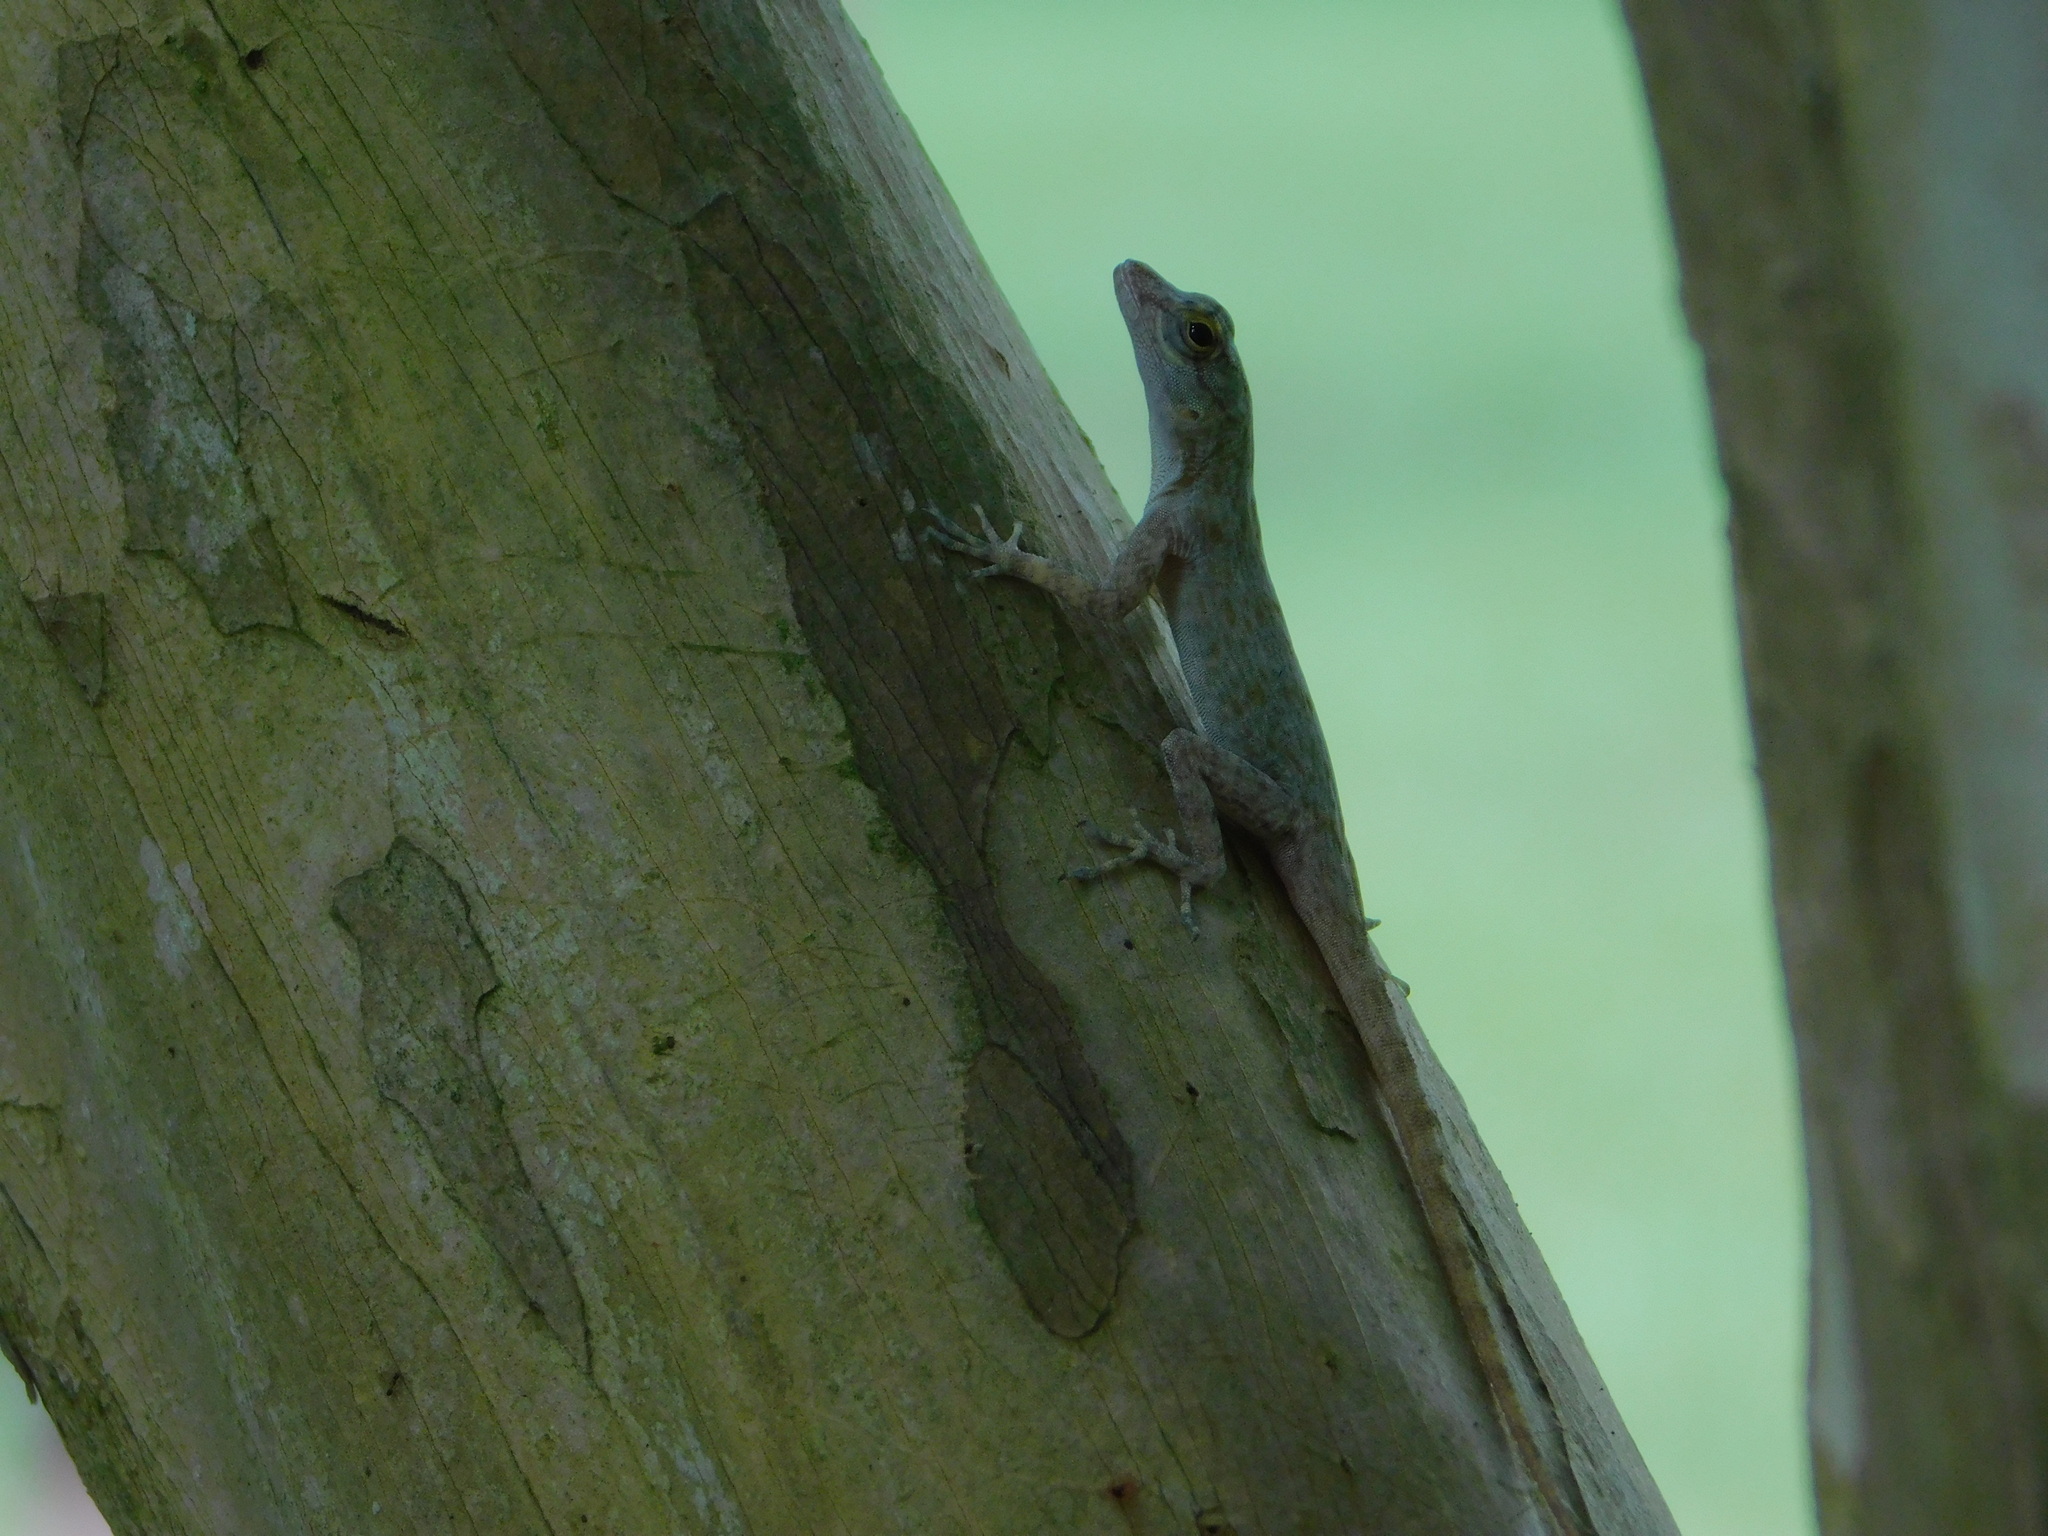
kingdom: Animalia
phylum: Chordata
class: Squamata
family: Dactyloidae
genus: Anolis
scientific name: Anolis distichus
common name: Bark anole
